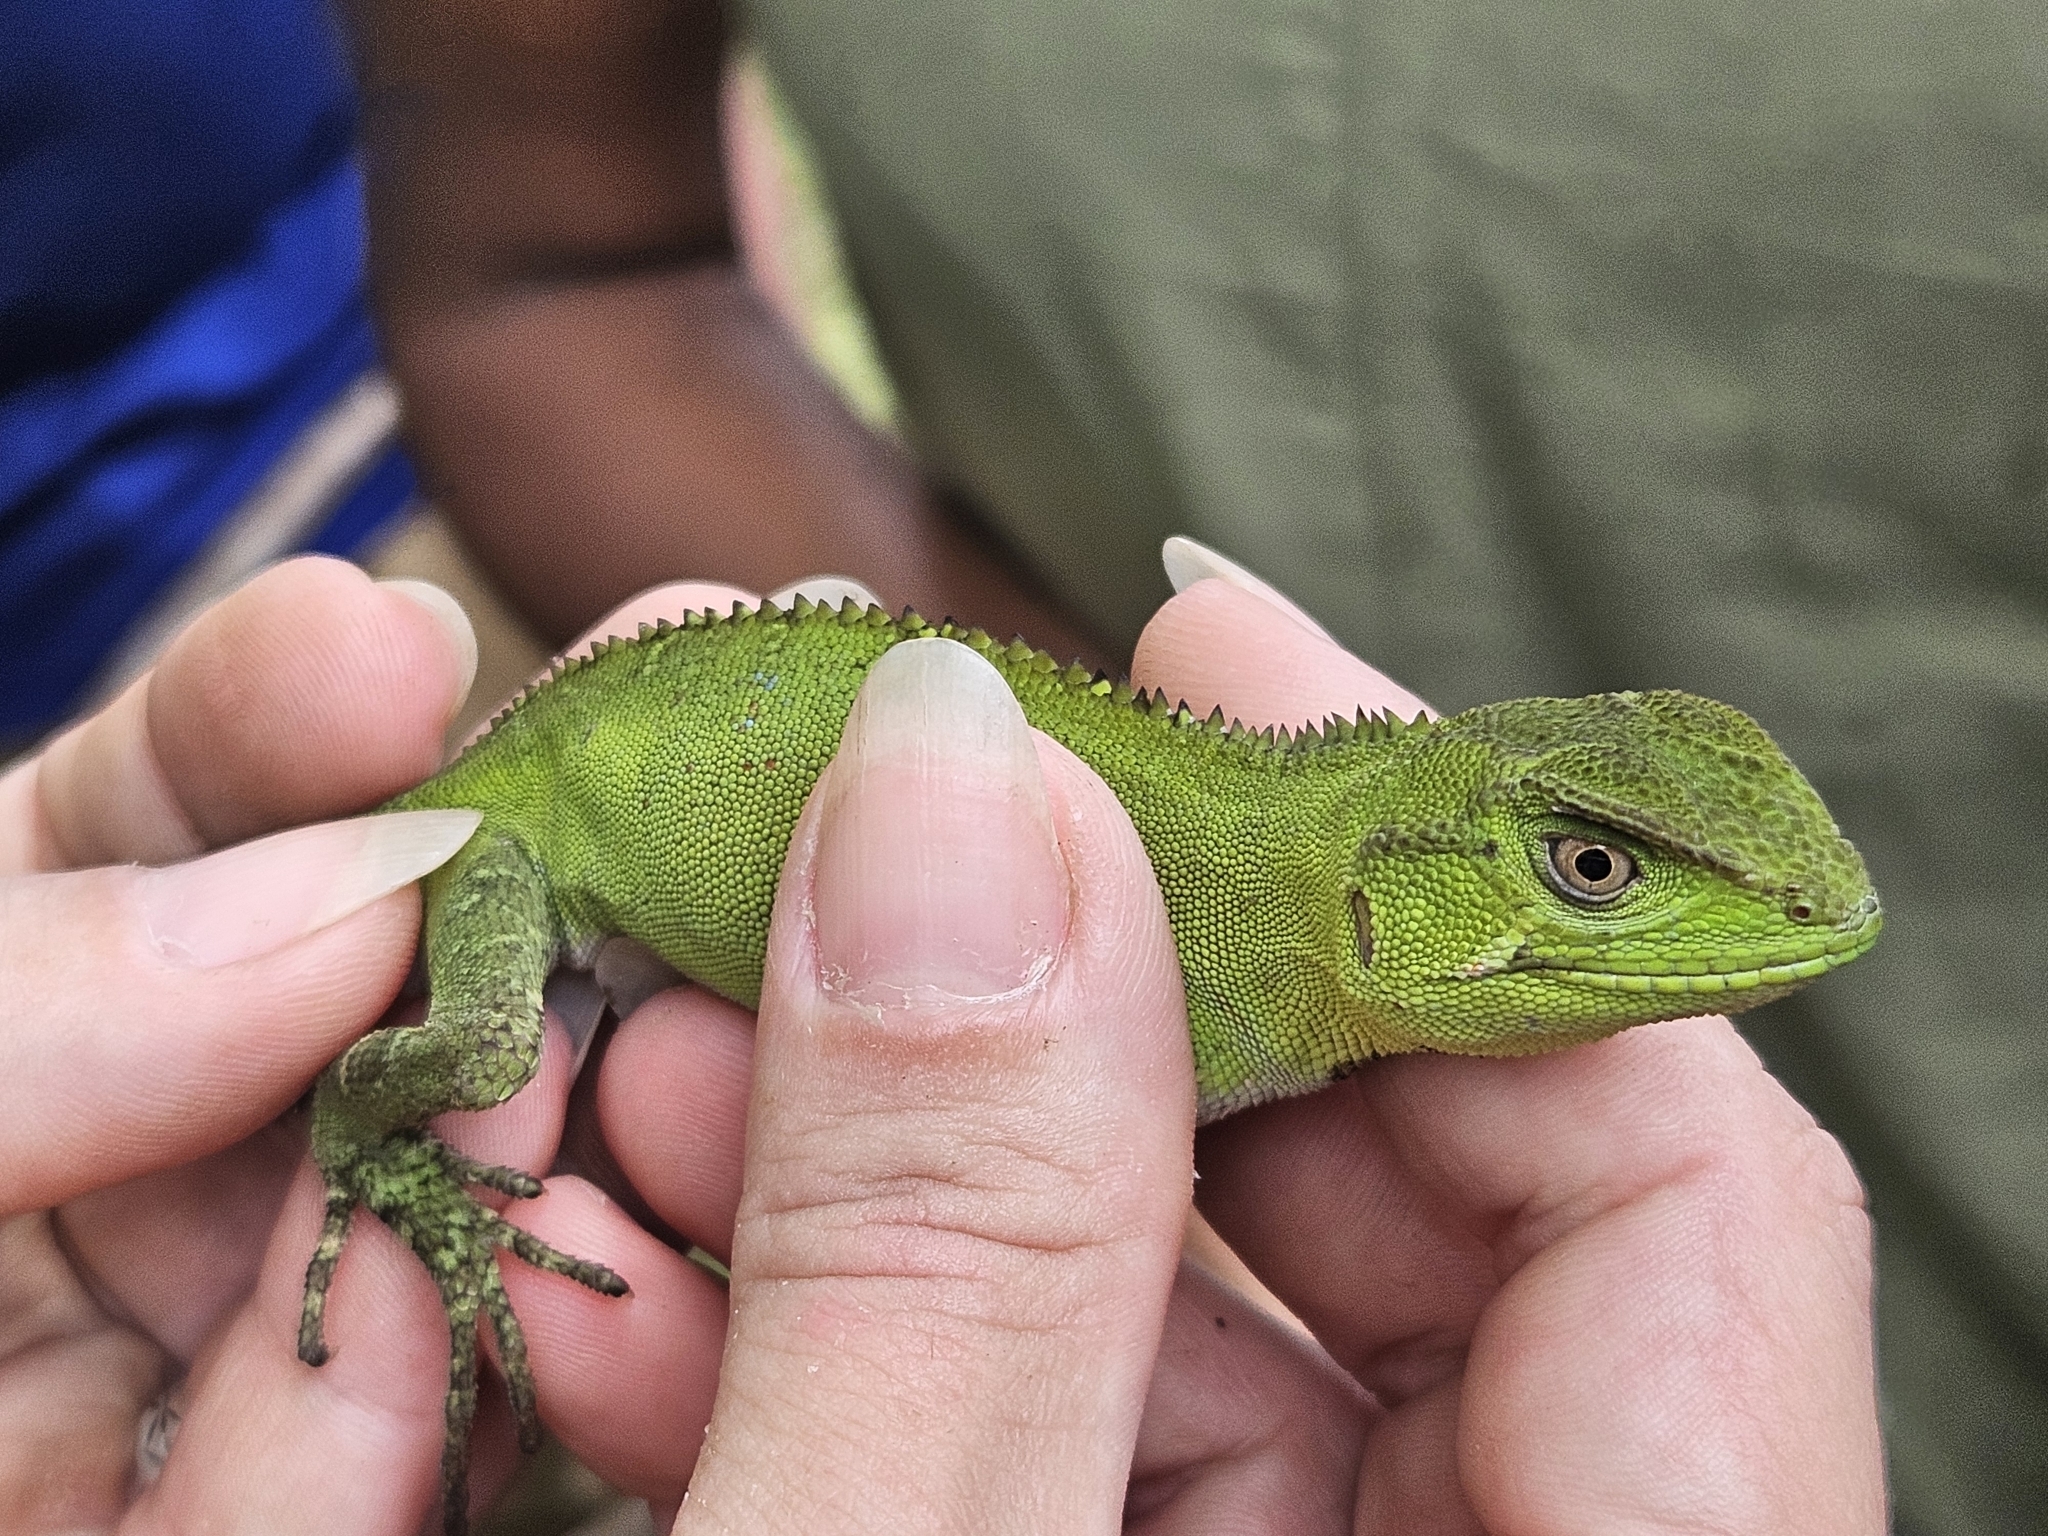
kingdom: Animalia
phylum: Chordata
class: Squamata
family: Leiosauridae
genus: Enyalius
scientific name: Enyalius perditus
